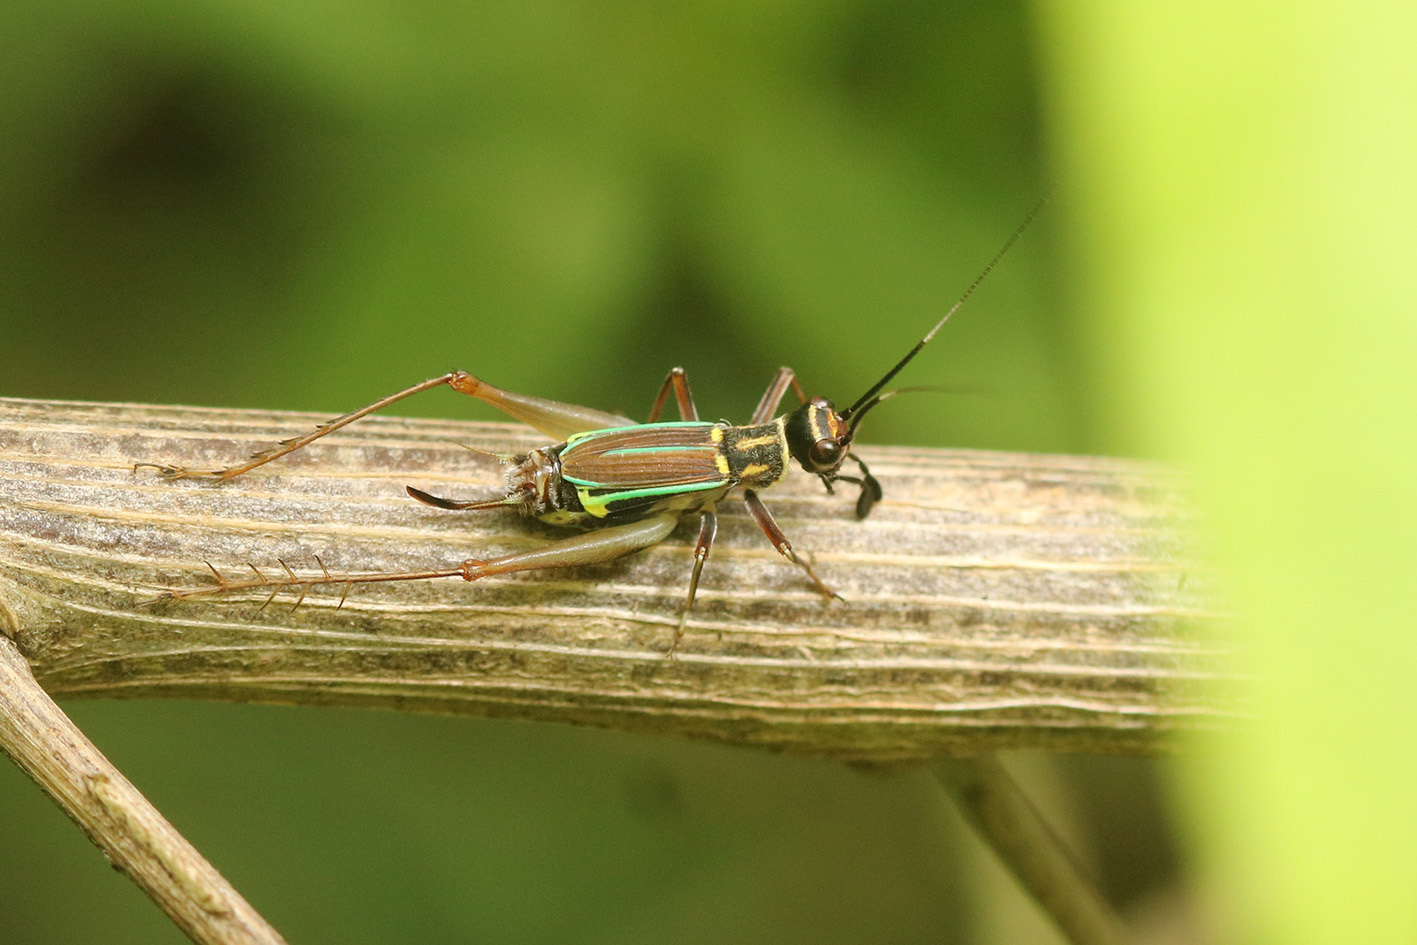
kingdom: Animalia
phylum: Arthropoda
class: Insecta
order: Orthoptera
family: Trigonidiidae
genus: Phylloscyrtus
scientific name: Phylloscyrtus amoenus
